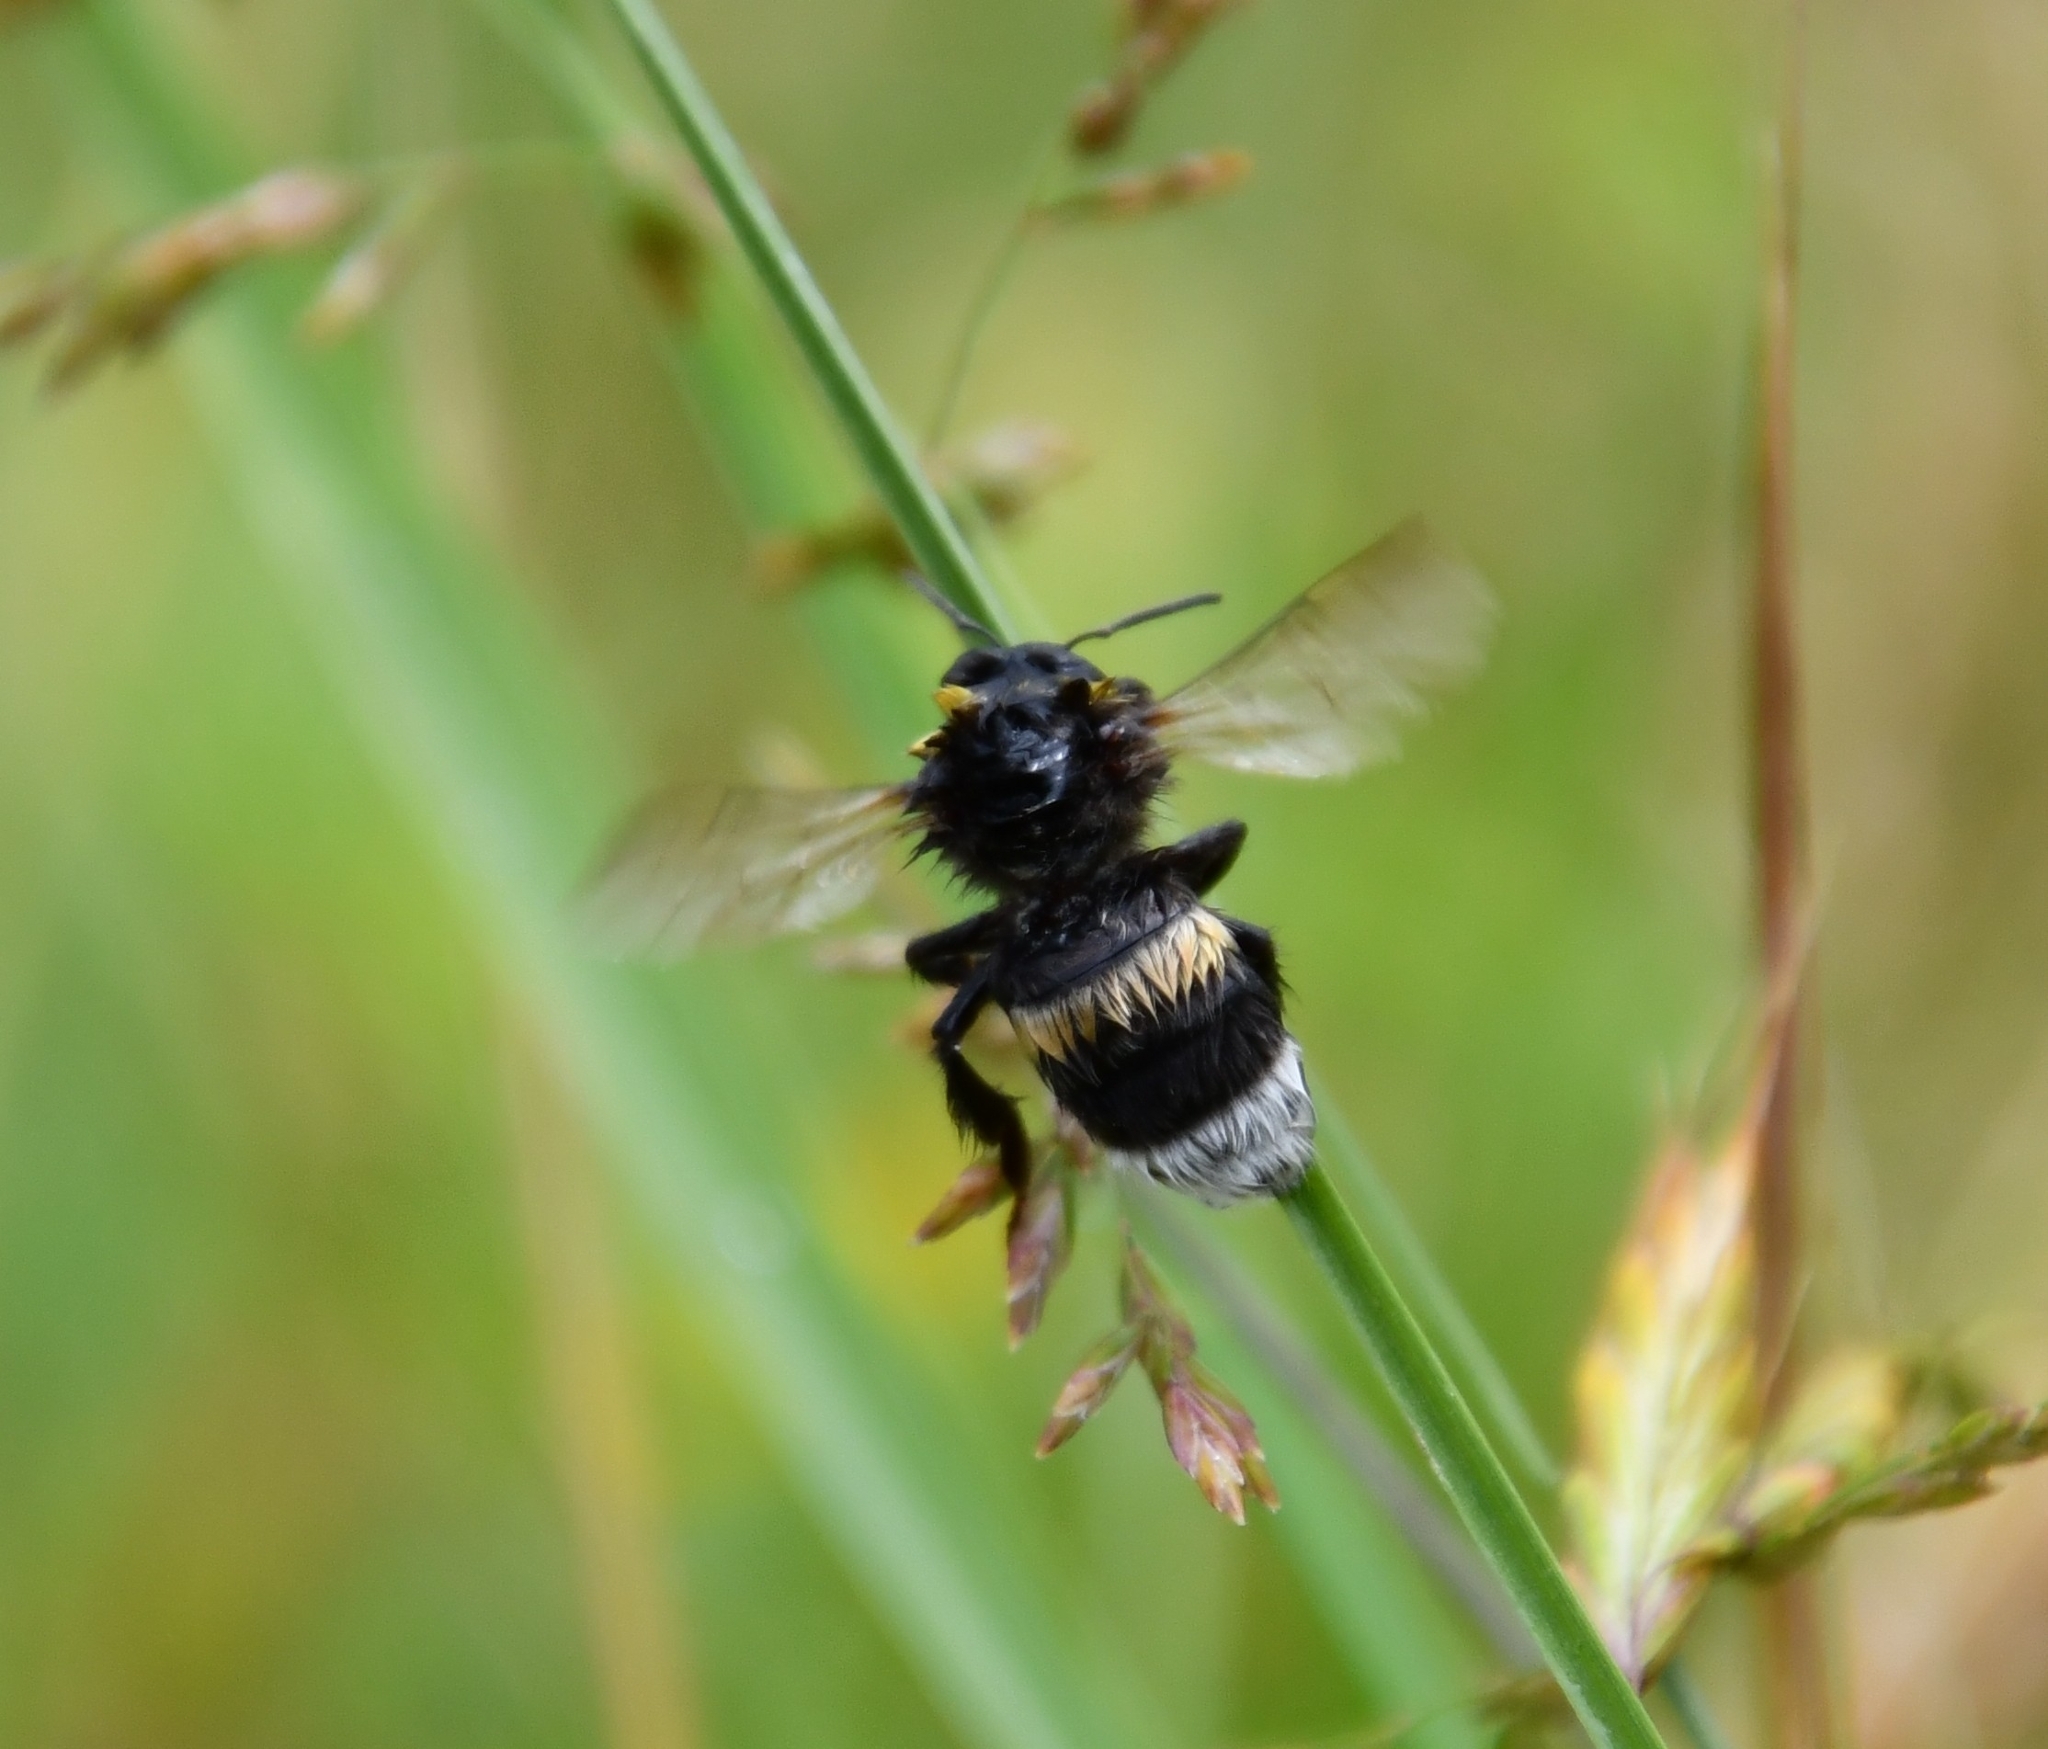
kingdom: Animalia
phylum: Arthropoda
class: Insecta
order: Hymenoptera
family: Apidae
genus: Bombus
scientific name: Bombus
